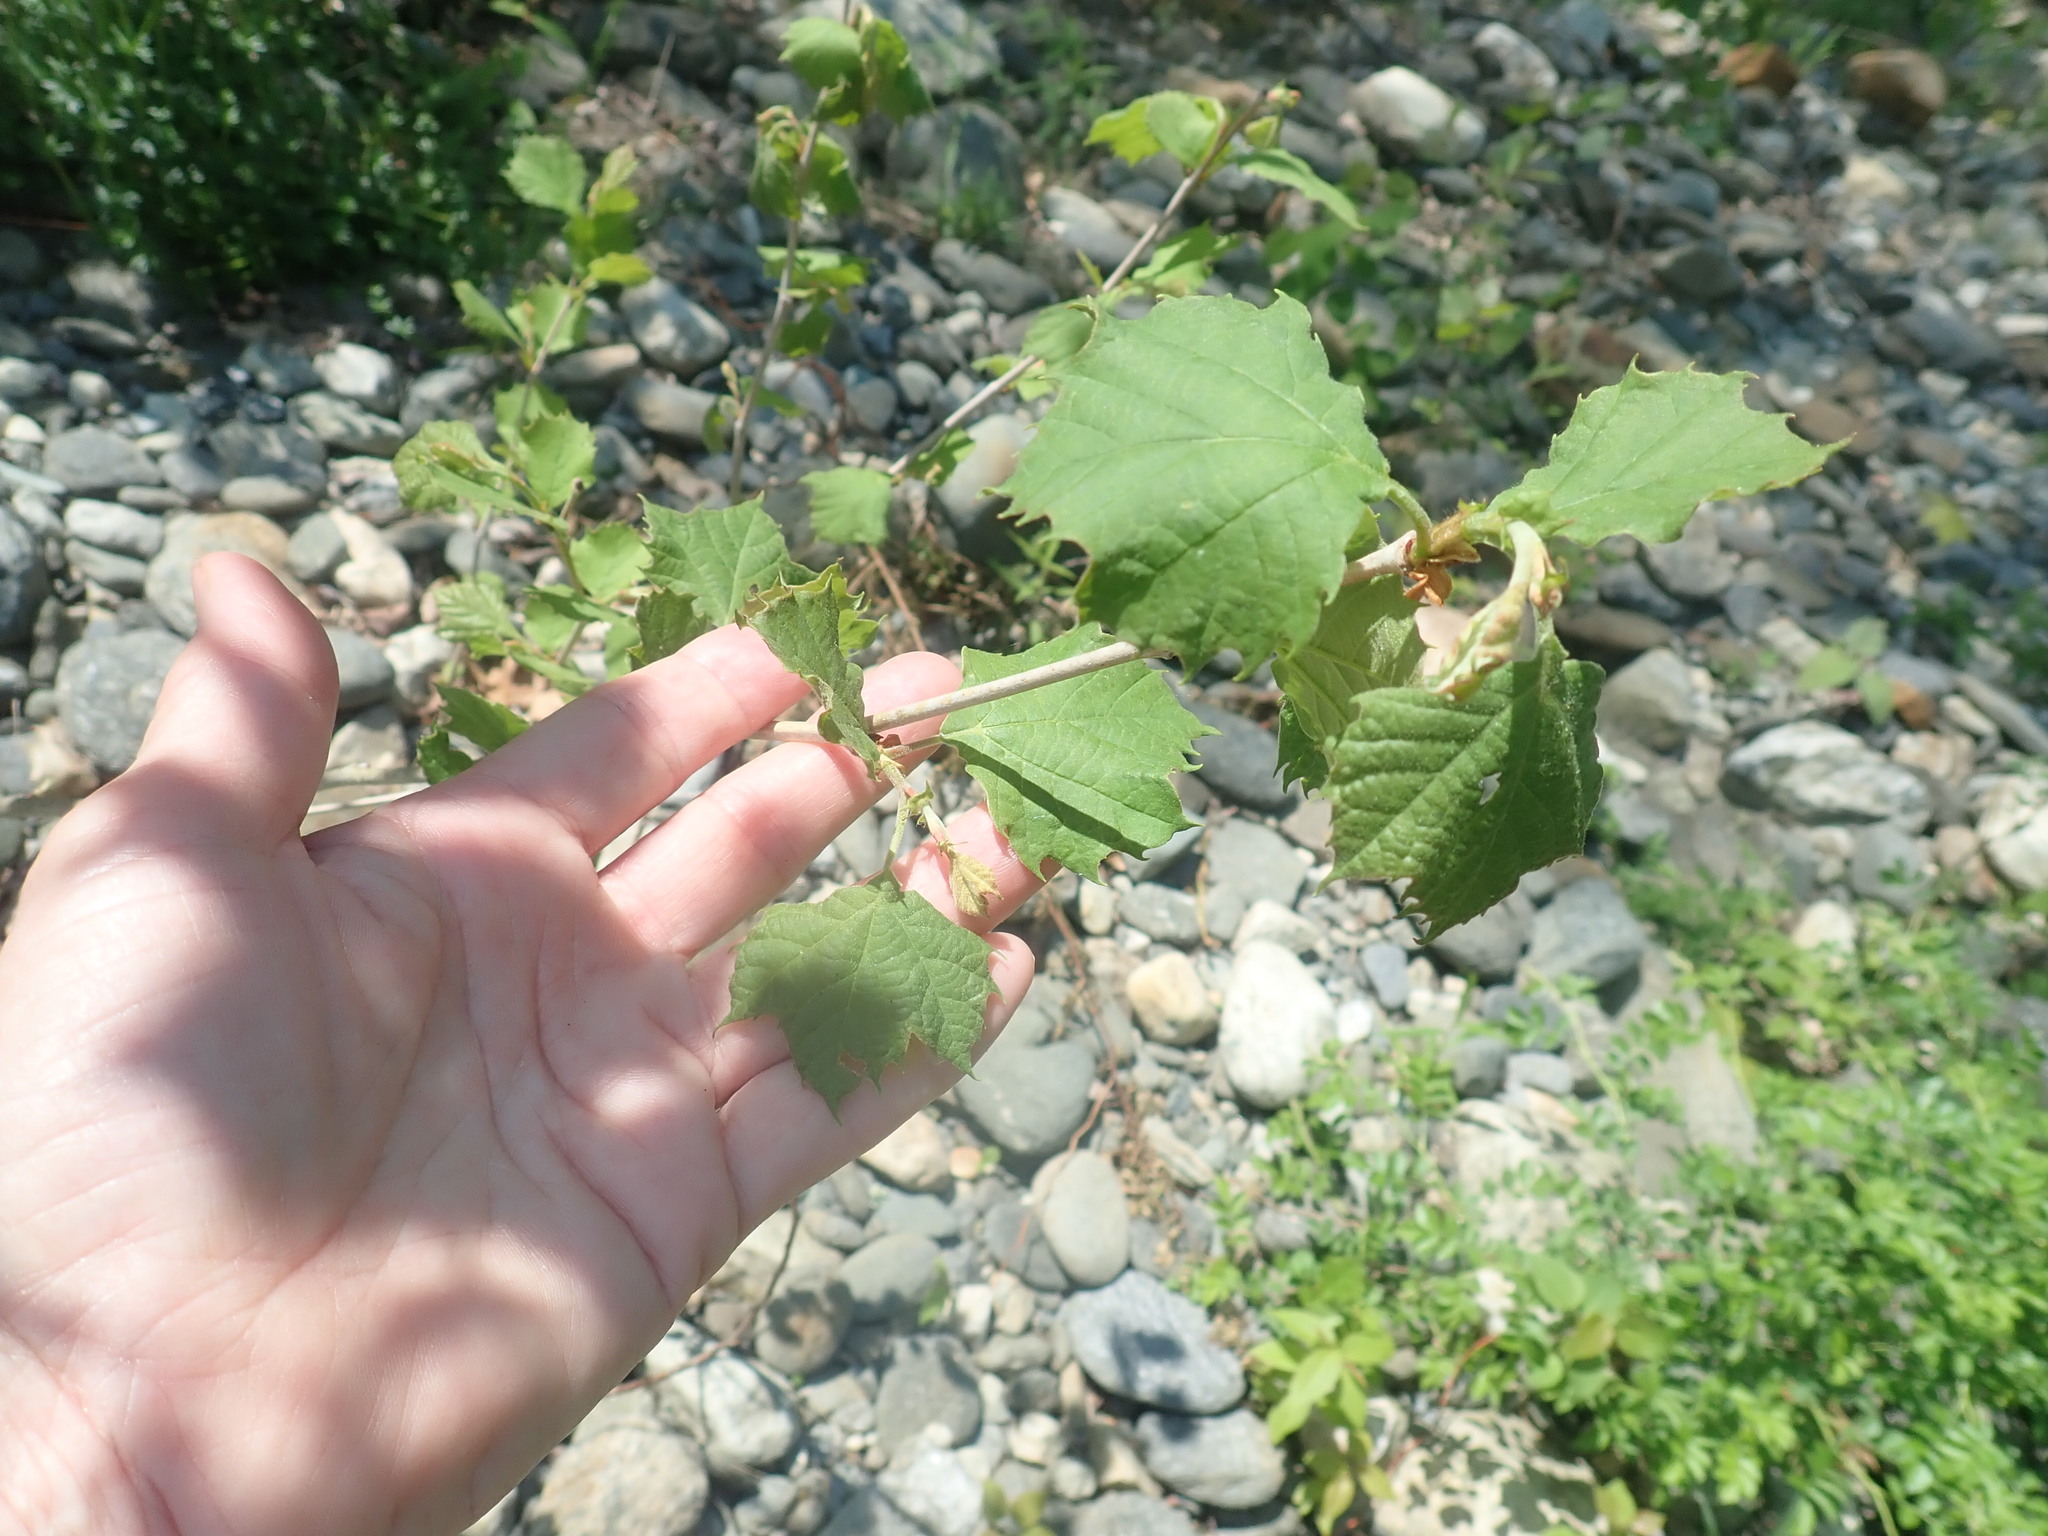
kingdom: Plantae
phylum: Tracheophyta
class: Magnoliopsida
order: Proteales
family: Platanaceae
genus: Platanus
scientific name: Platanus occidentalis
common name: American sycamore
